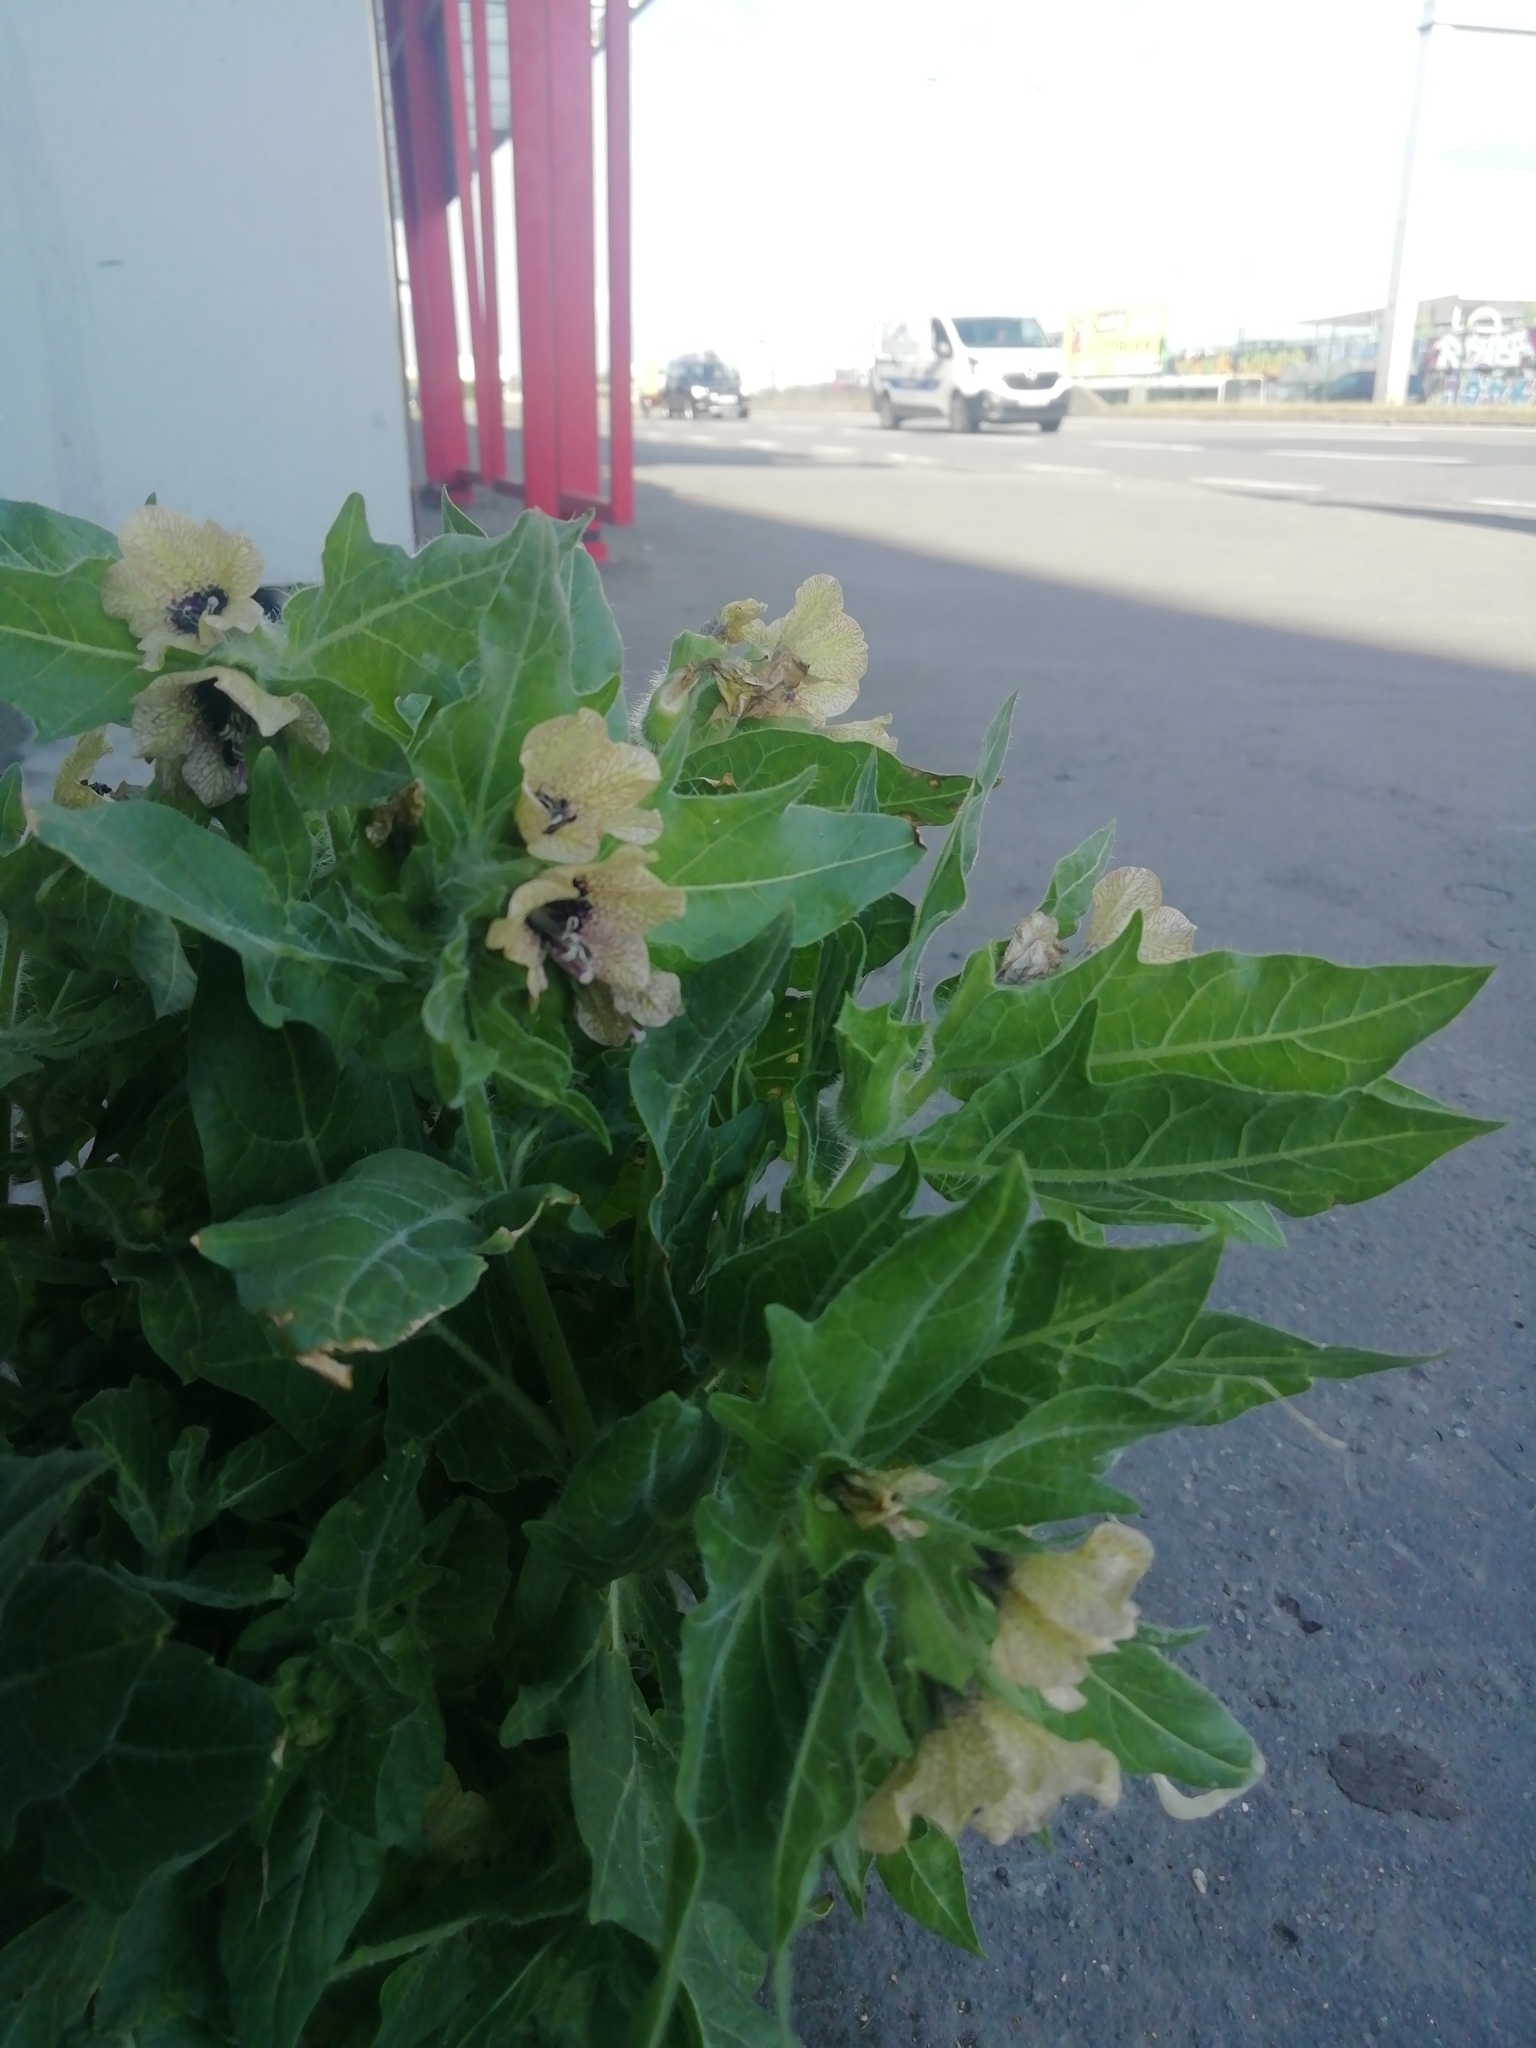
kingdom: Plantae
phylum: Tracheophyta
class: Magnoliopsida
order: Solanales
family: Solanaceae
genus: Hyoscyamus
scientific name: Hyoscyamus niger
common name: Henbane
